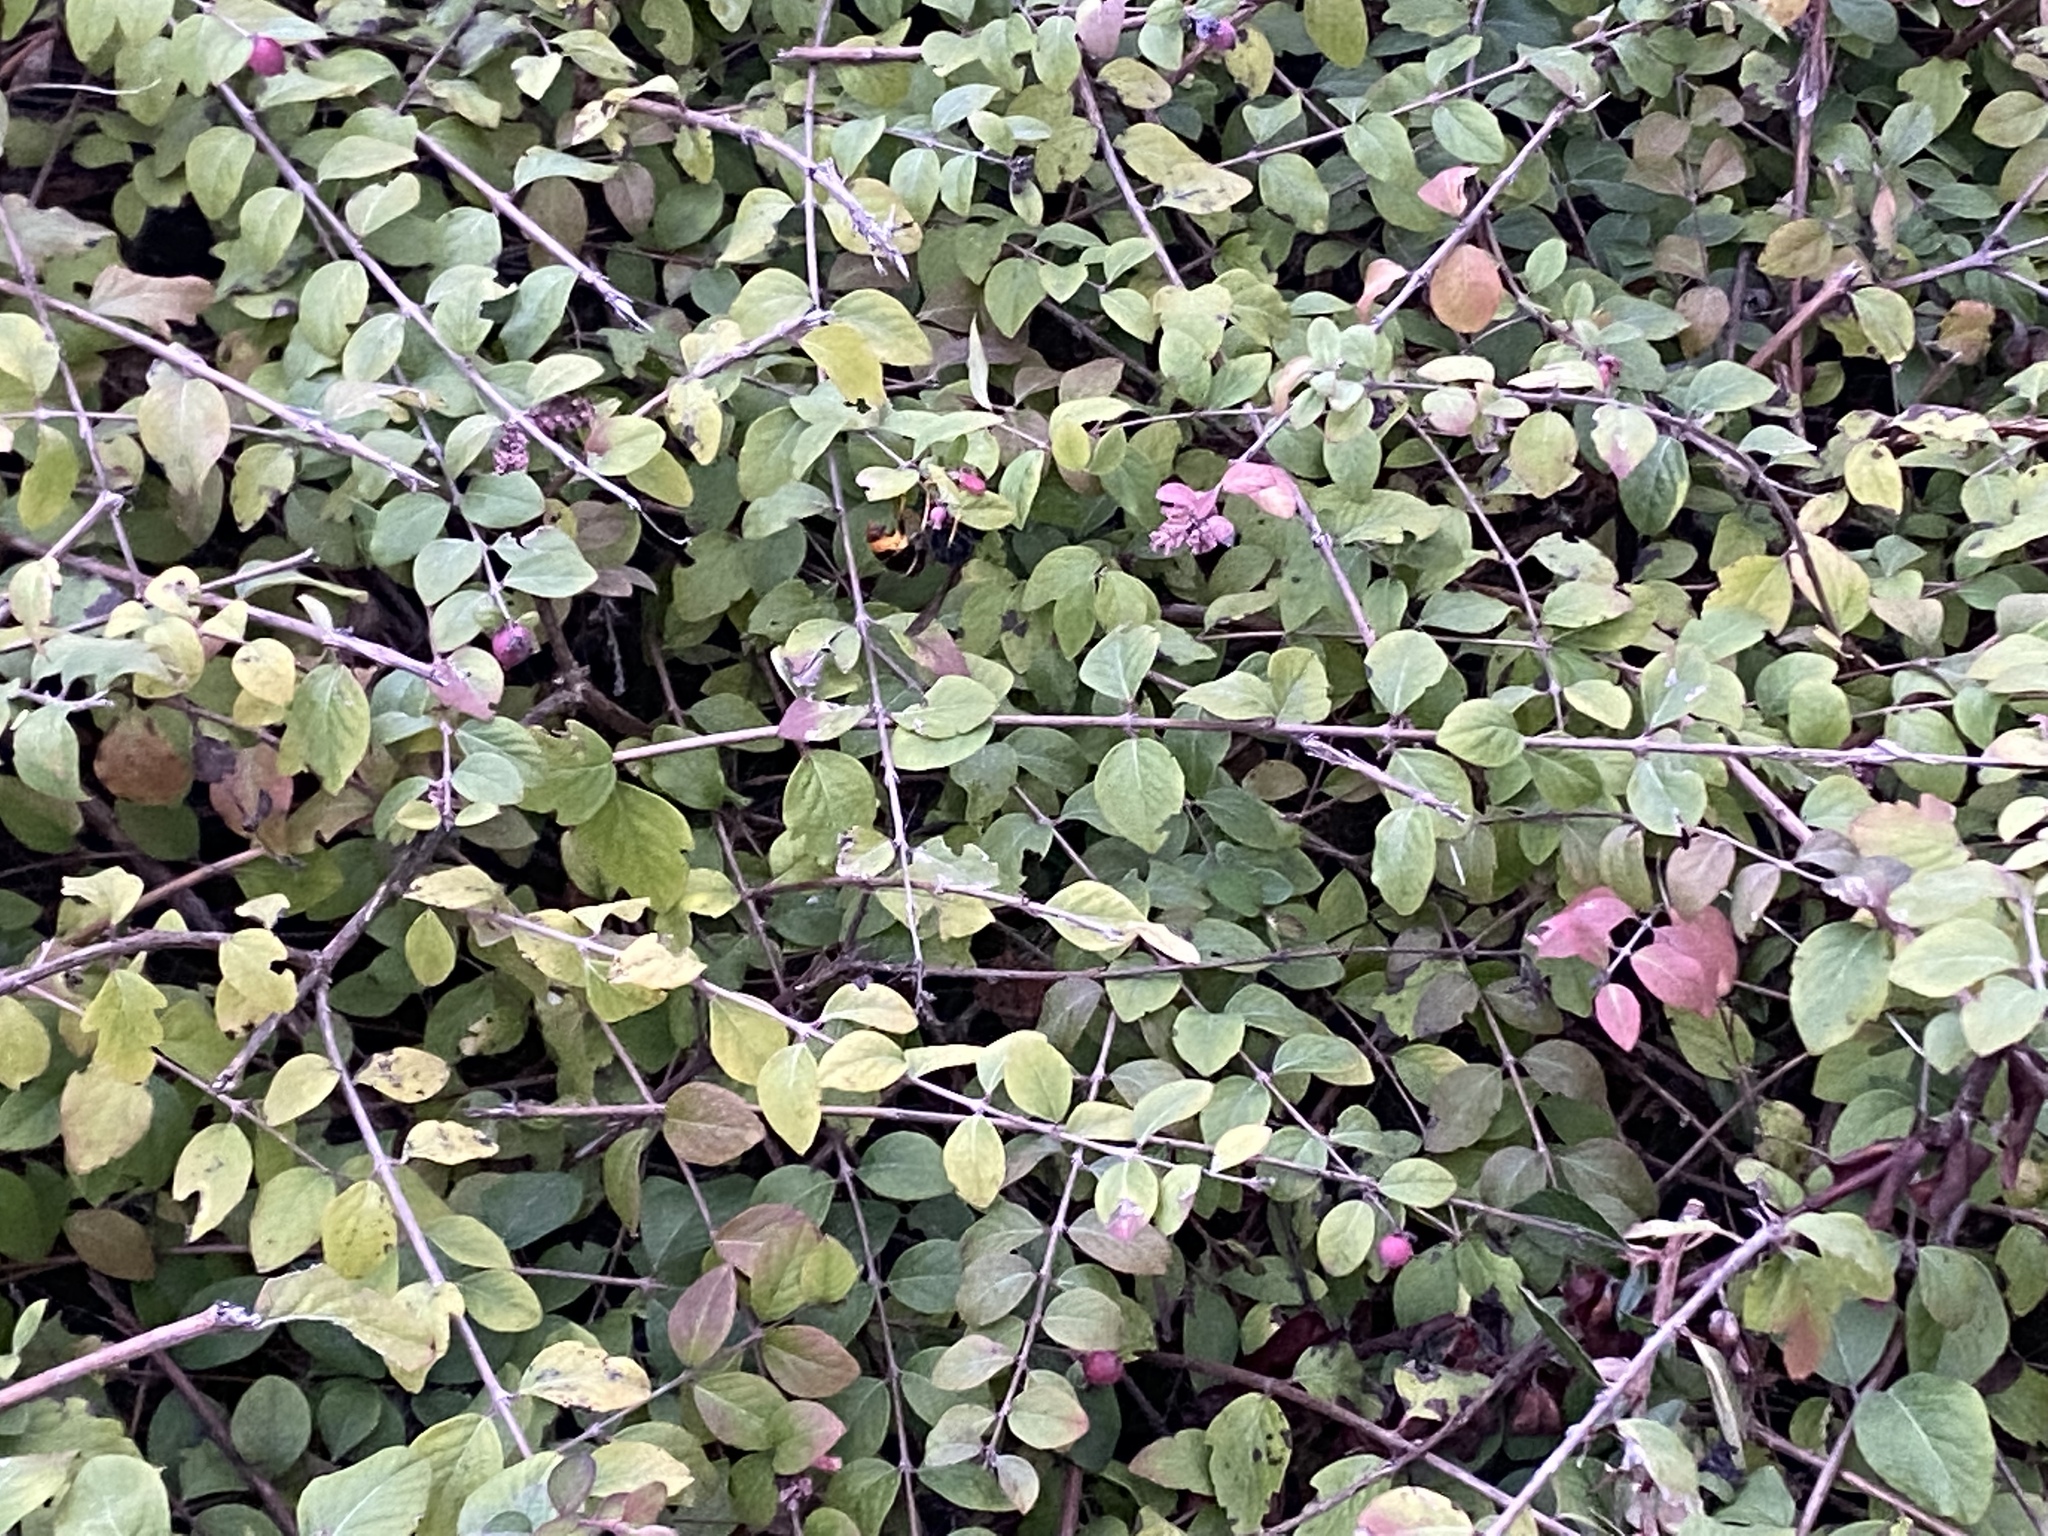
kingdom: Animalia
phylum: Arthropoda
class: Insecta
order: Hymenoptera
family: Vespidae
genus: Vespa
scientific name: Vespa velutina
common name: Asian hornet
